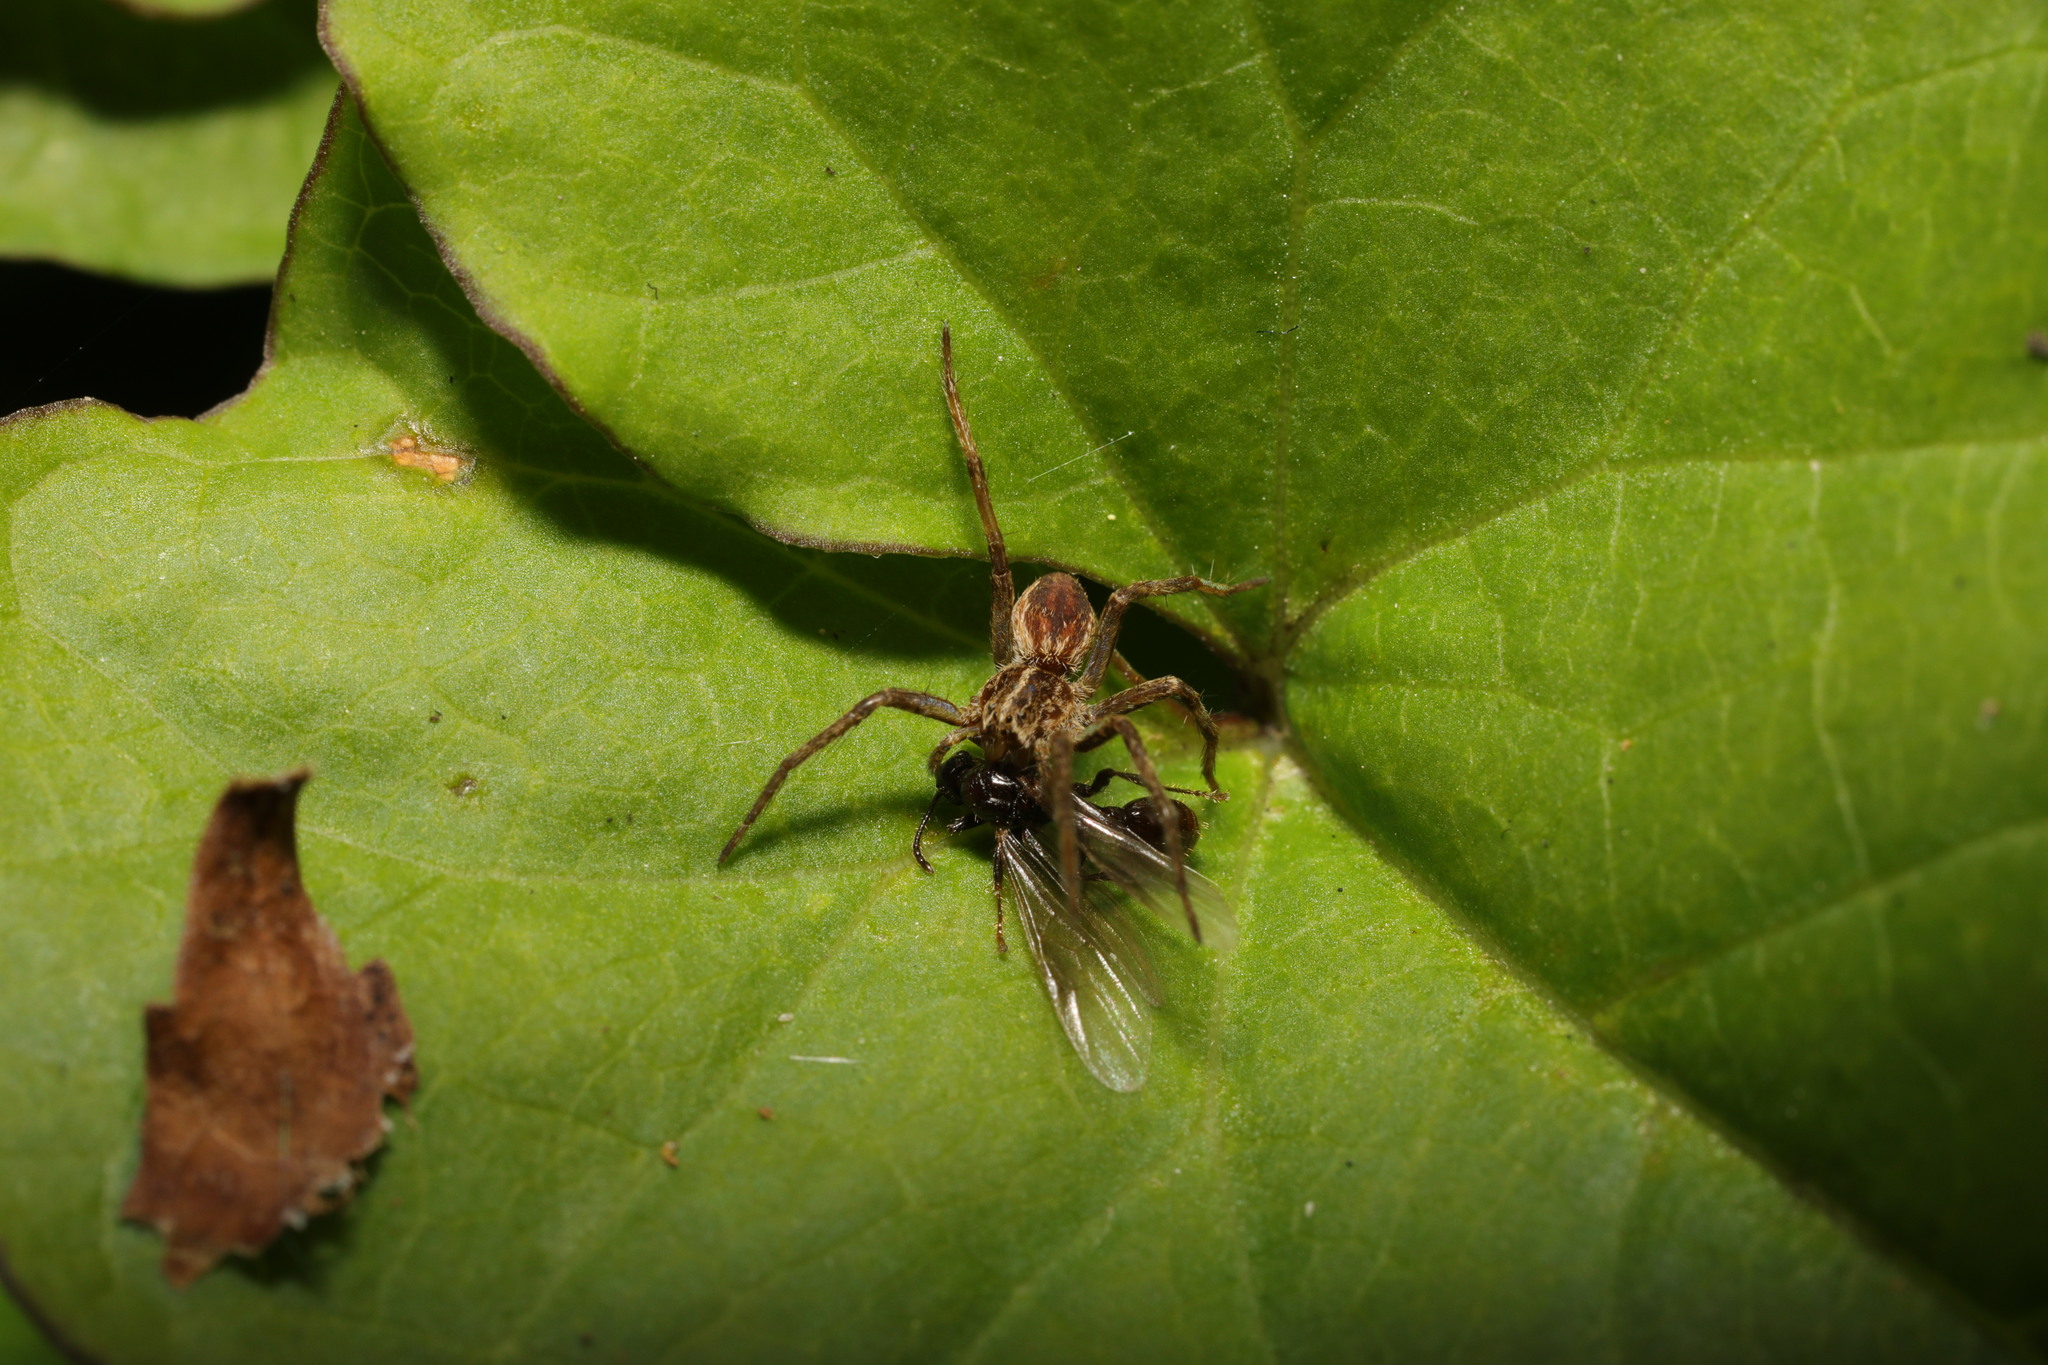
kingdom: Animalia
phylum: Arthropoda
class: Arachnida
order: Araneae
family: Pisauridae
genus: Pisaura
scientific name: Pisaura mirabilis
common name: Tent spider
